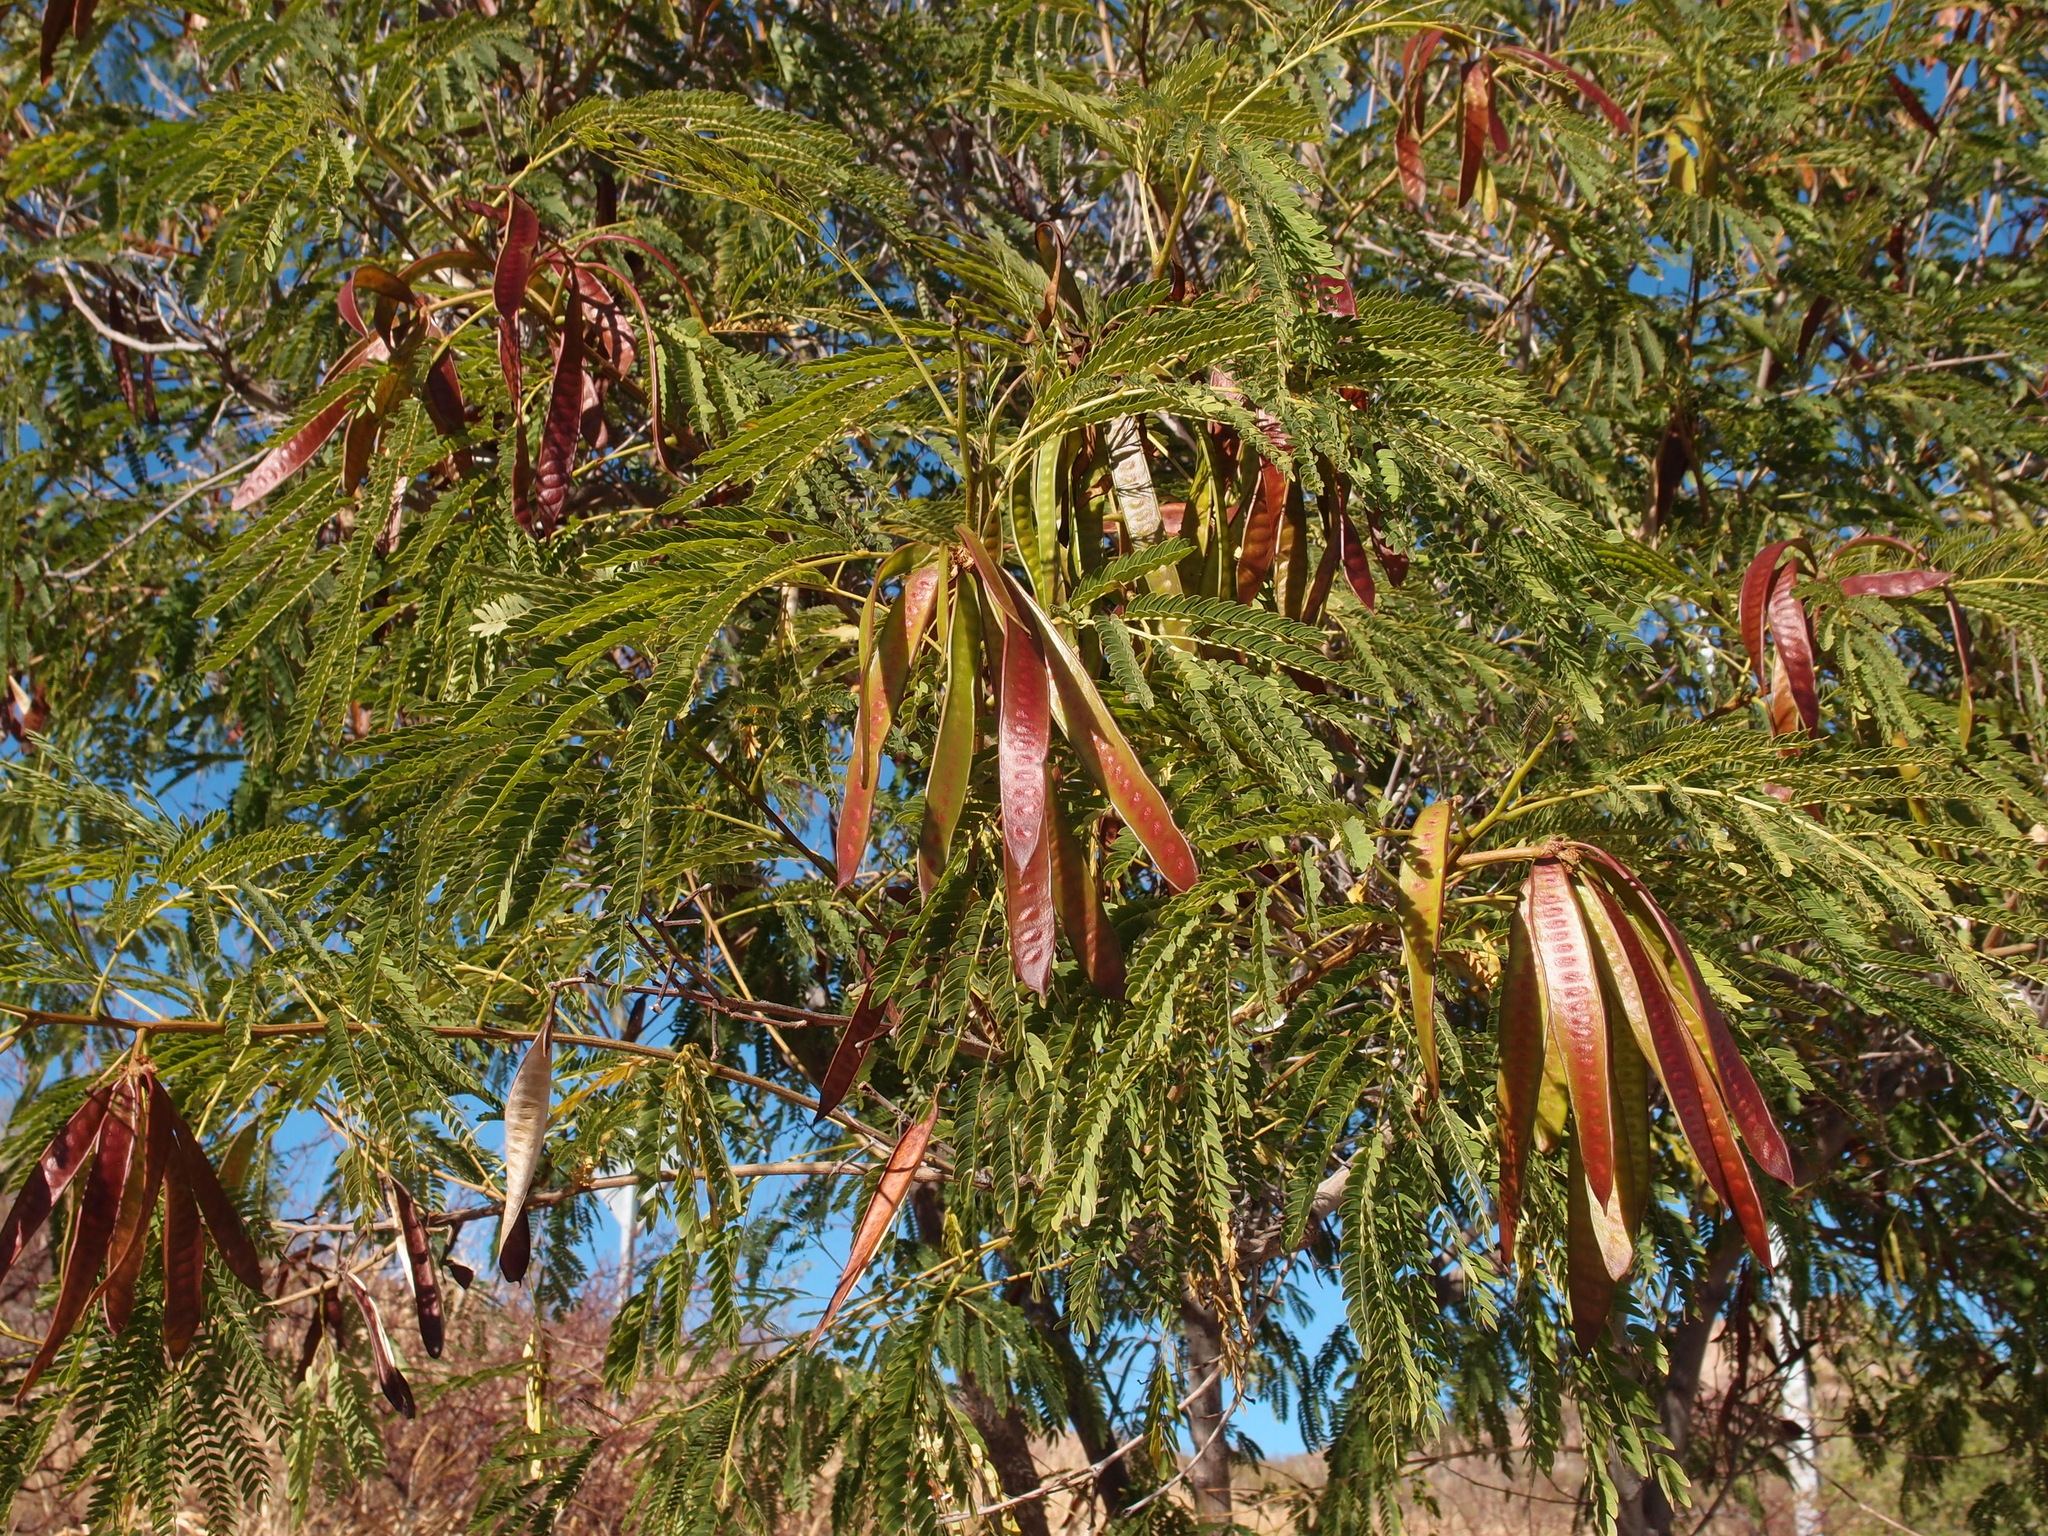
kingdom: Plantae
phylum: Tracheophyta
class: Magnoliopsida
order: Fabales
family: Fabaceae
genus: Leucaena
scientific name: Leucaena leucocephala
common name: White leadtree
